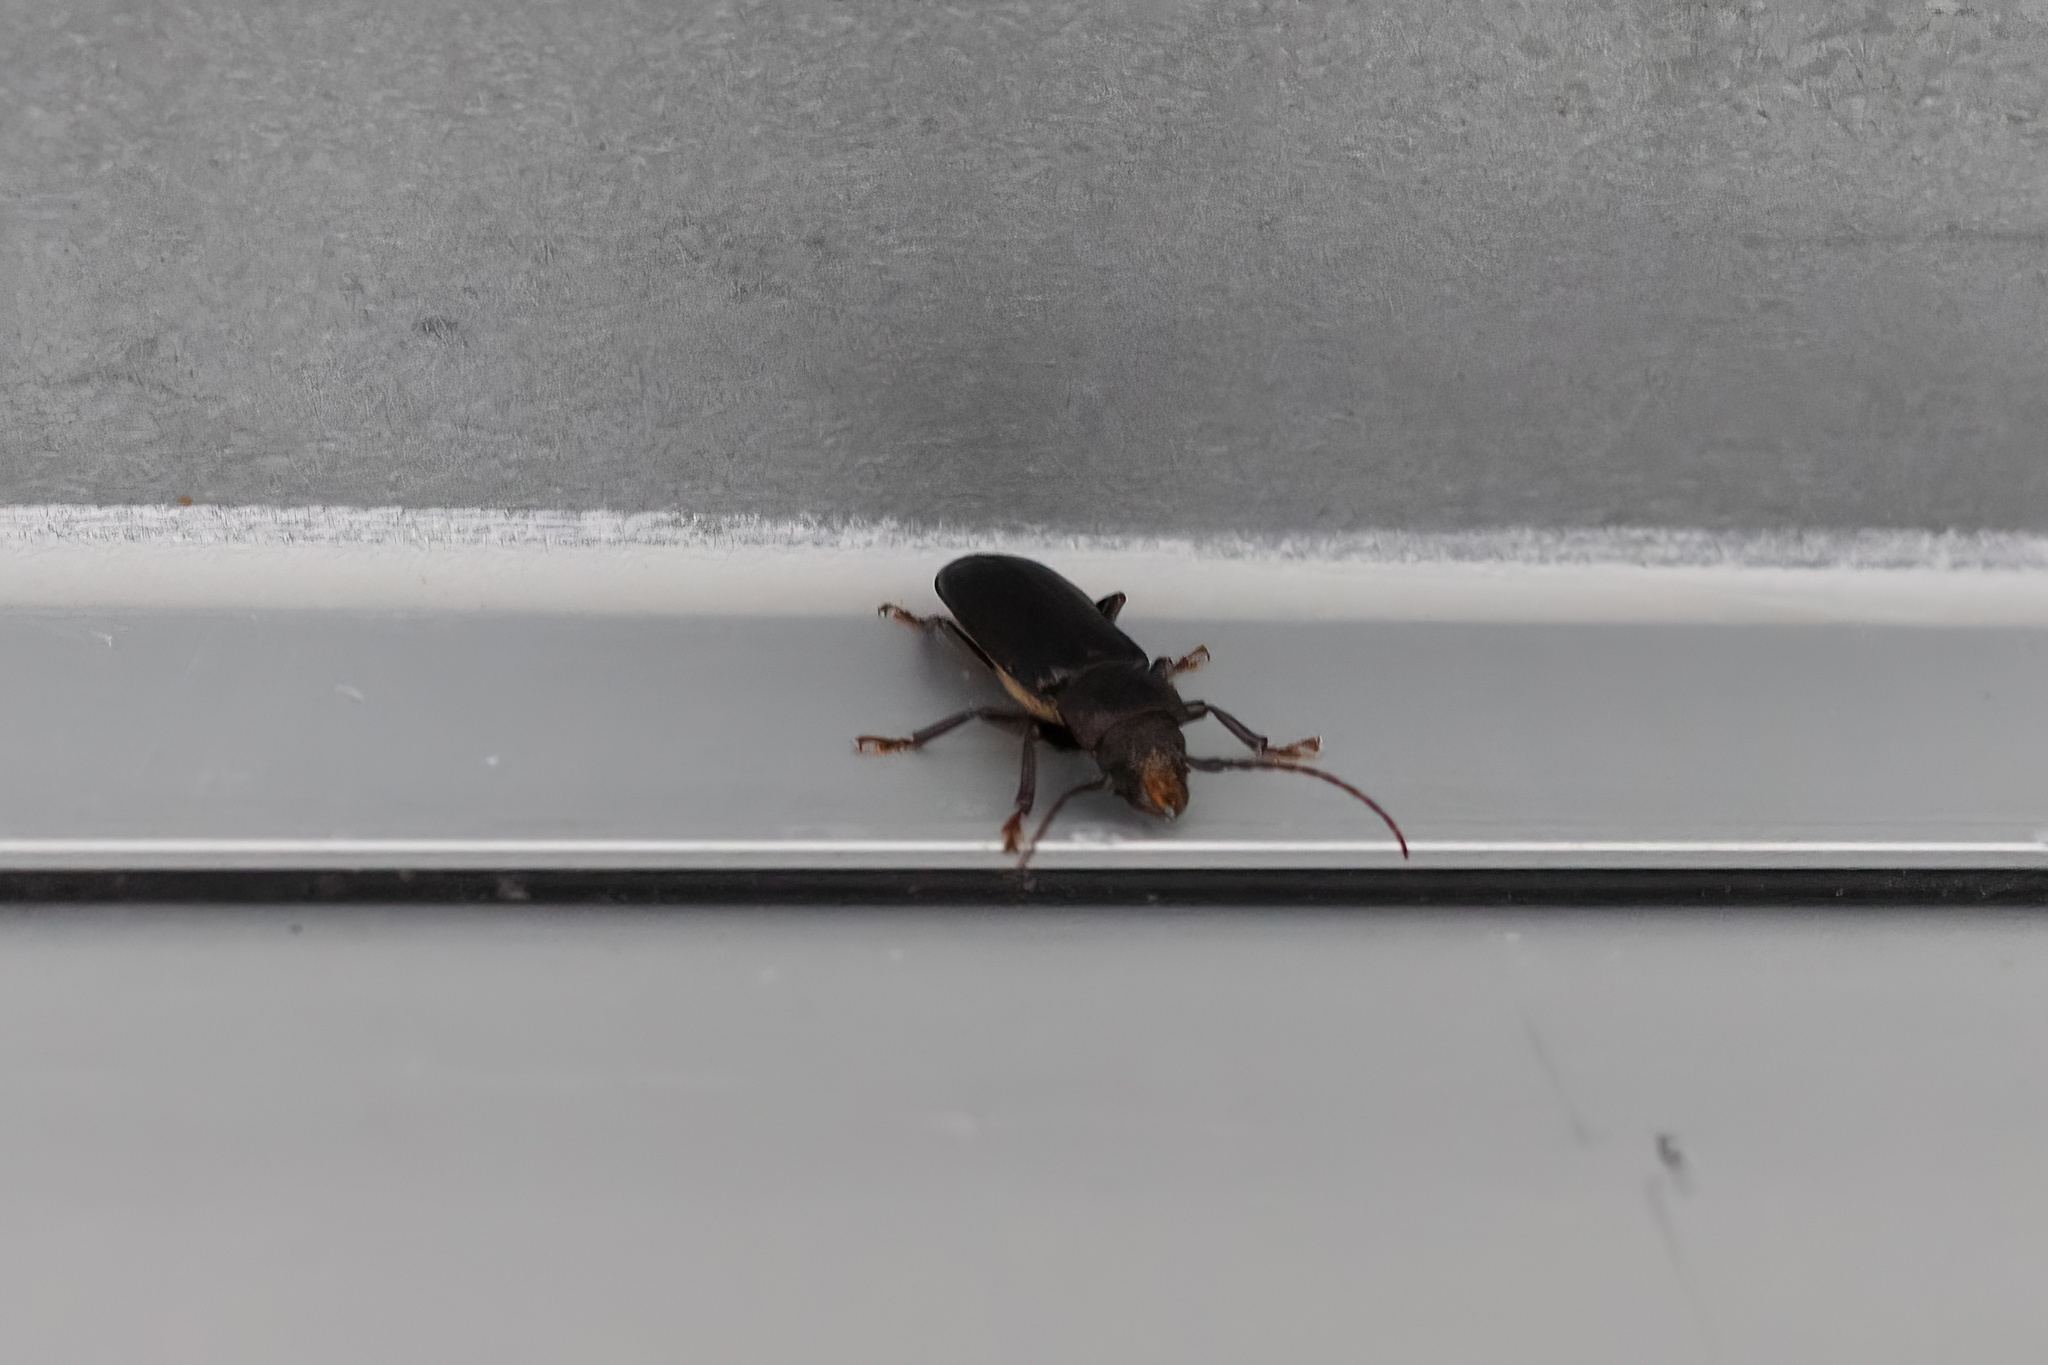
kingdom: Animalia
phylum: Arthropoda
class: Insecta
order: Coleoptera
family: Cerambycidae
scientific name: Cerambycidae
